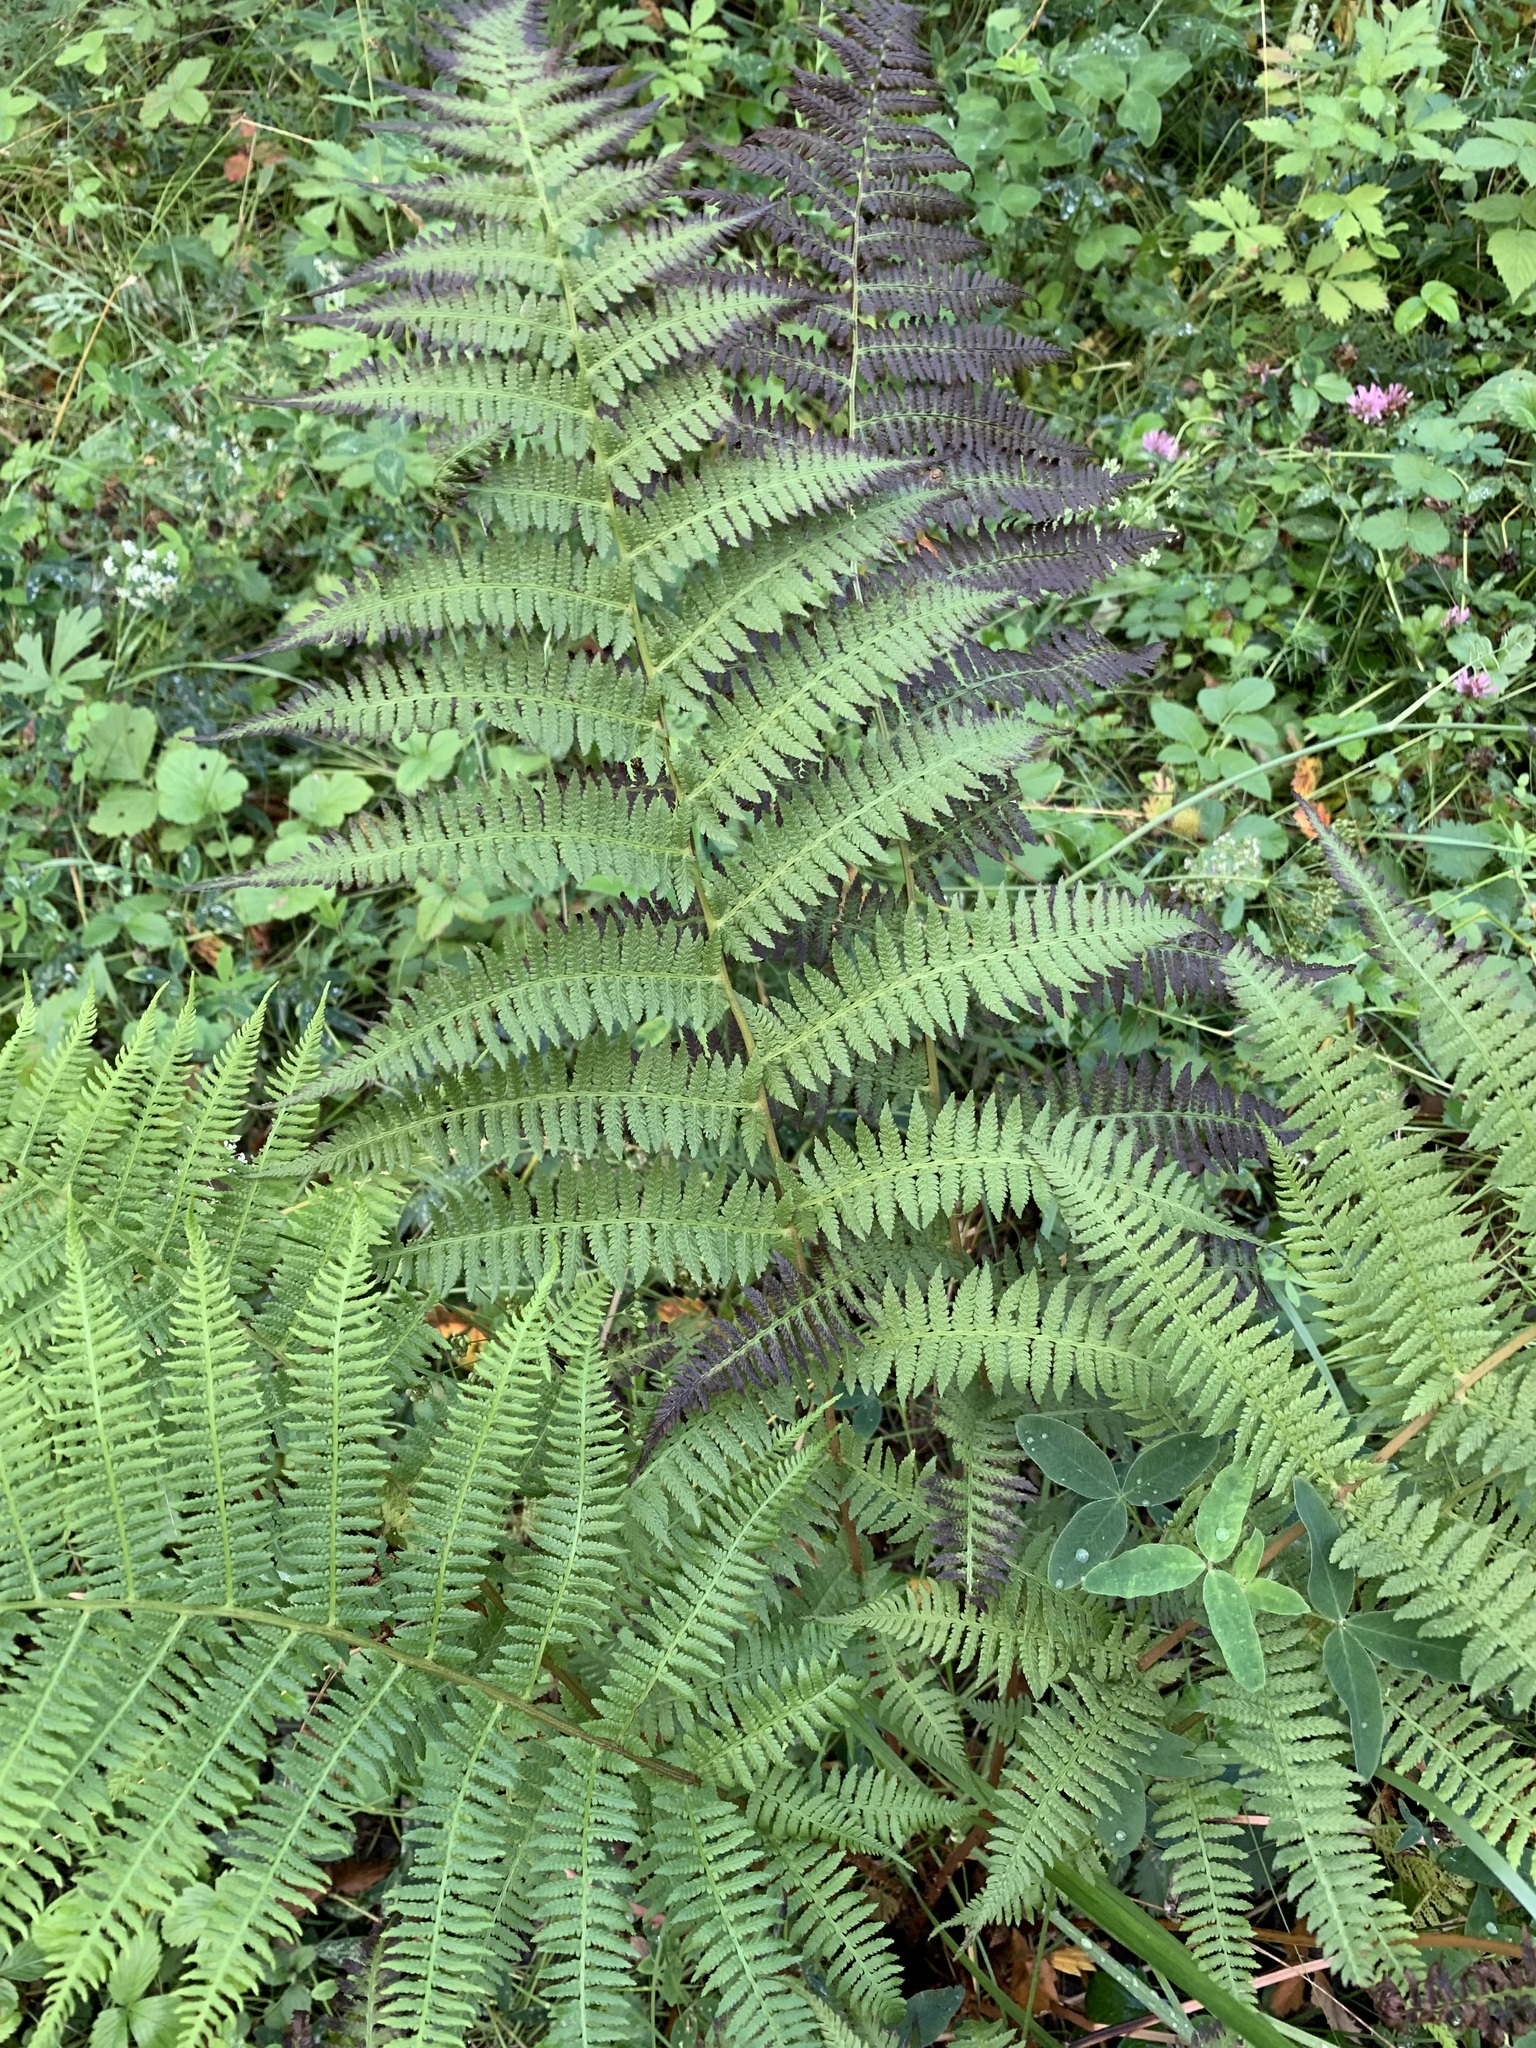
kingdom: Plantae
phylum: Tracheophyta
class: Polypodiopsida
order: Polypodiales
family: Athyriaceae
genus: Athyrium
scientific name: Athyrium filix-femina
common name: Lady fern
